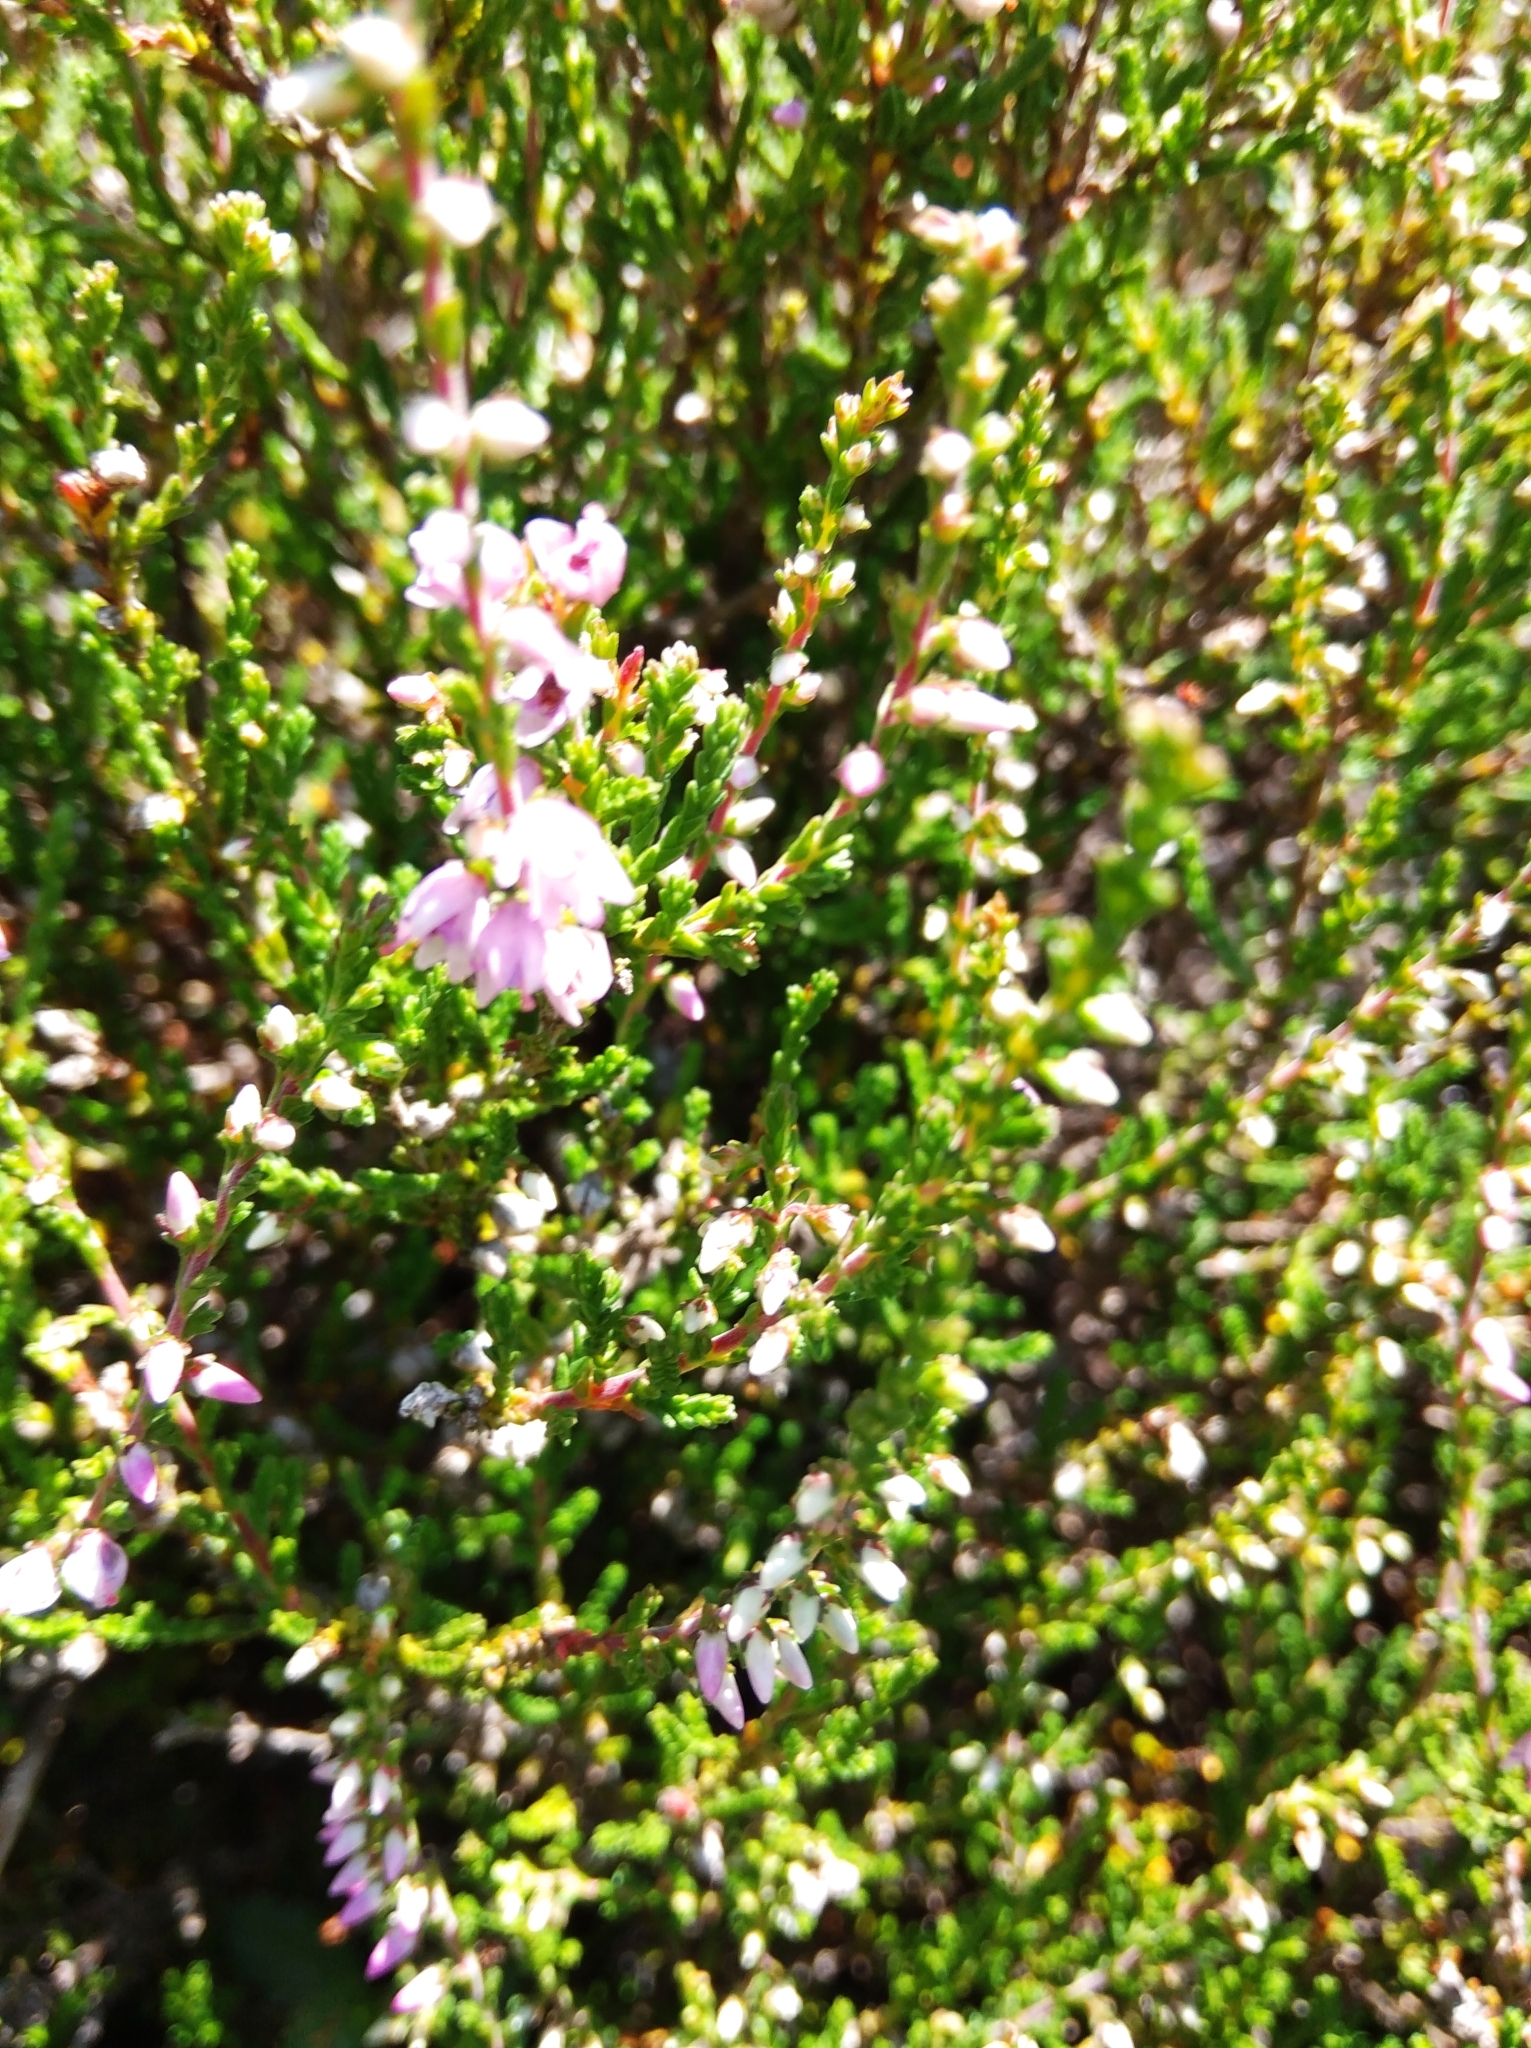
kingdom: Plantae
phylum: Tracheophyta
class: Magnoliopsida
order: Ericales
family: Ericaceae
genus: Calluna
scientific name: Calluna vulgaris
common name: Heather
